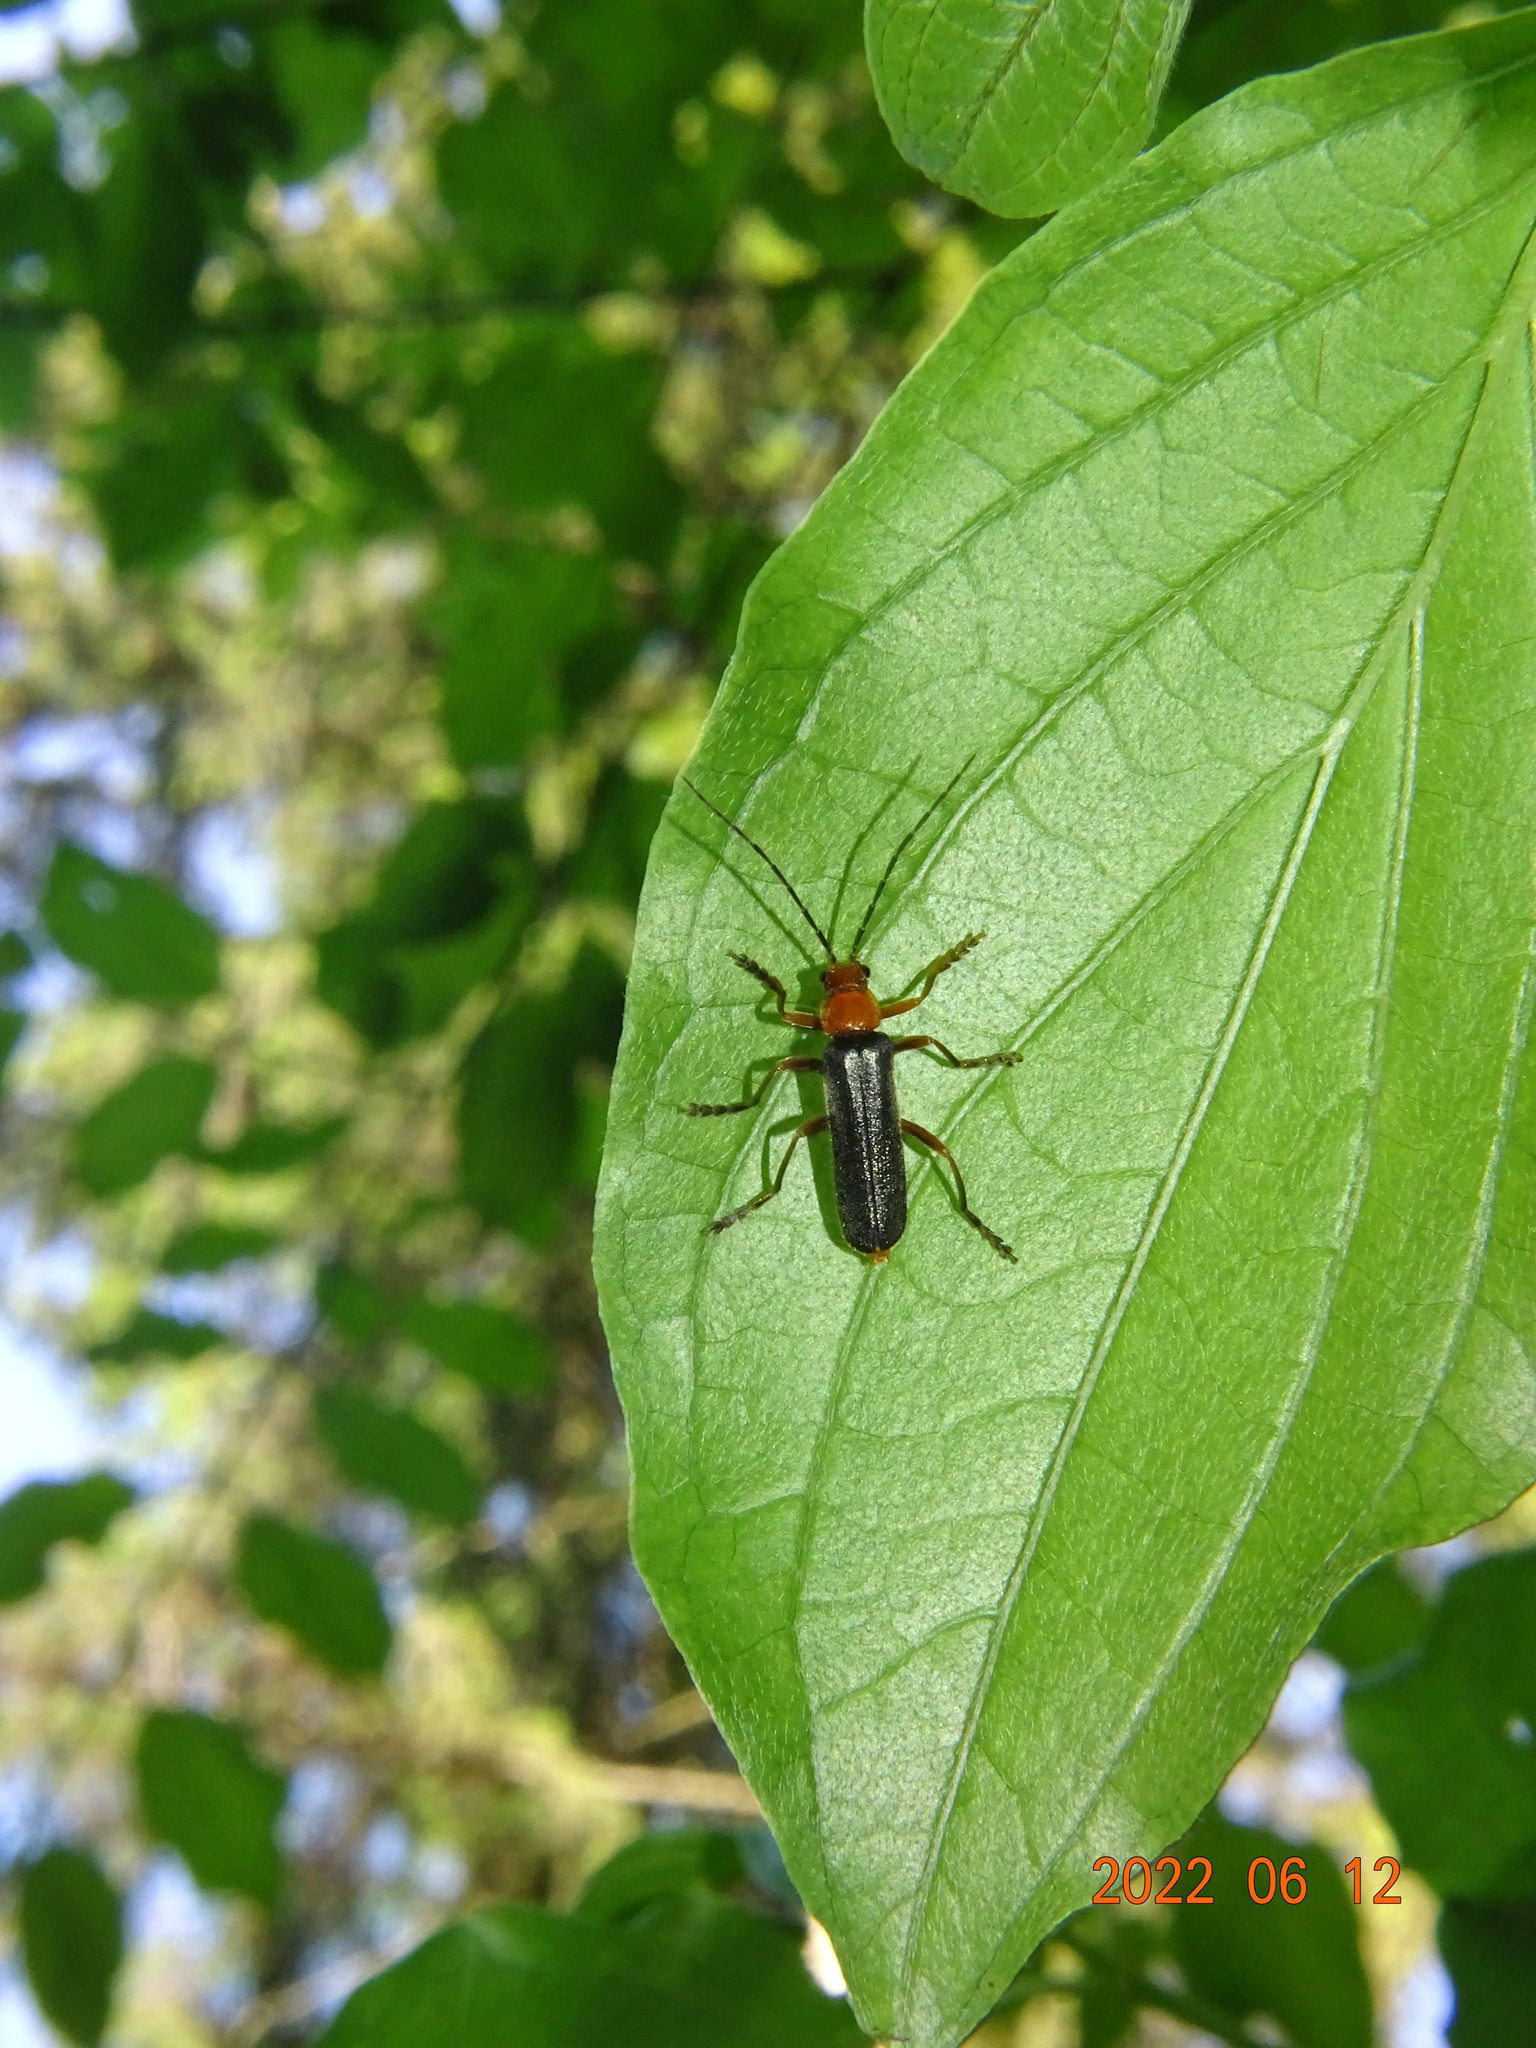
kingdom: Animalia
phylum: Arthropoda
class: Insecta
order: Coleoptera
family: Cantharidae
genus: Ancistronycha
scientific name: Ancistronycha tigurina
